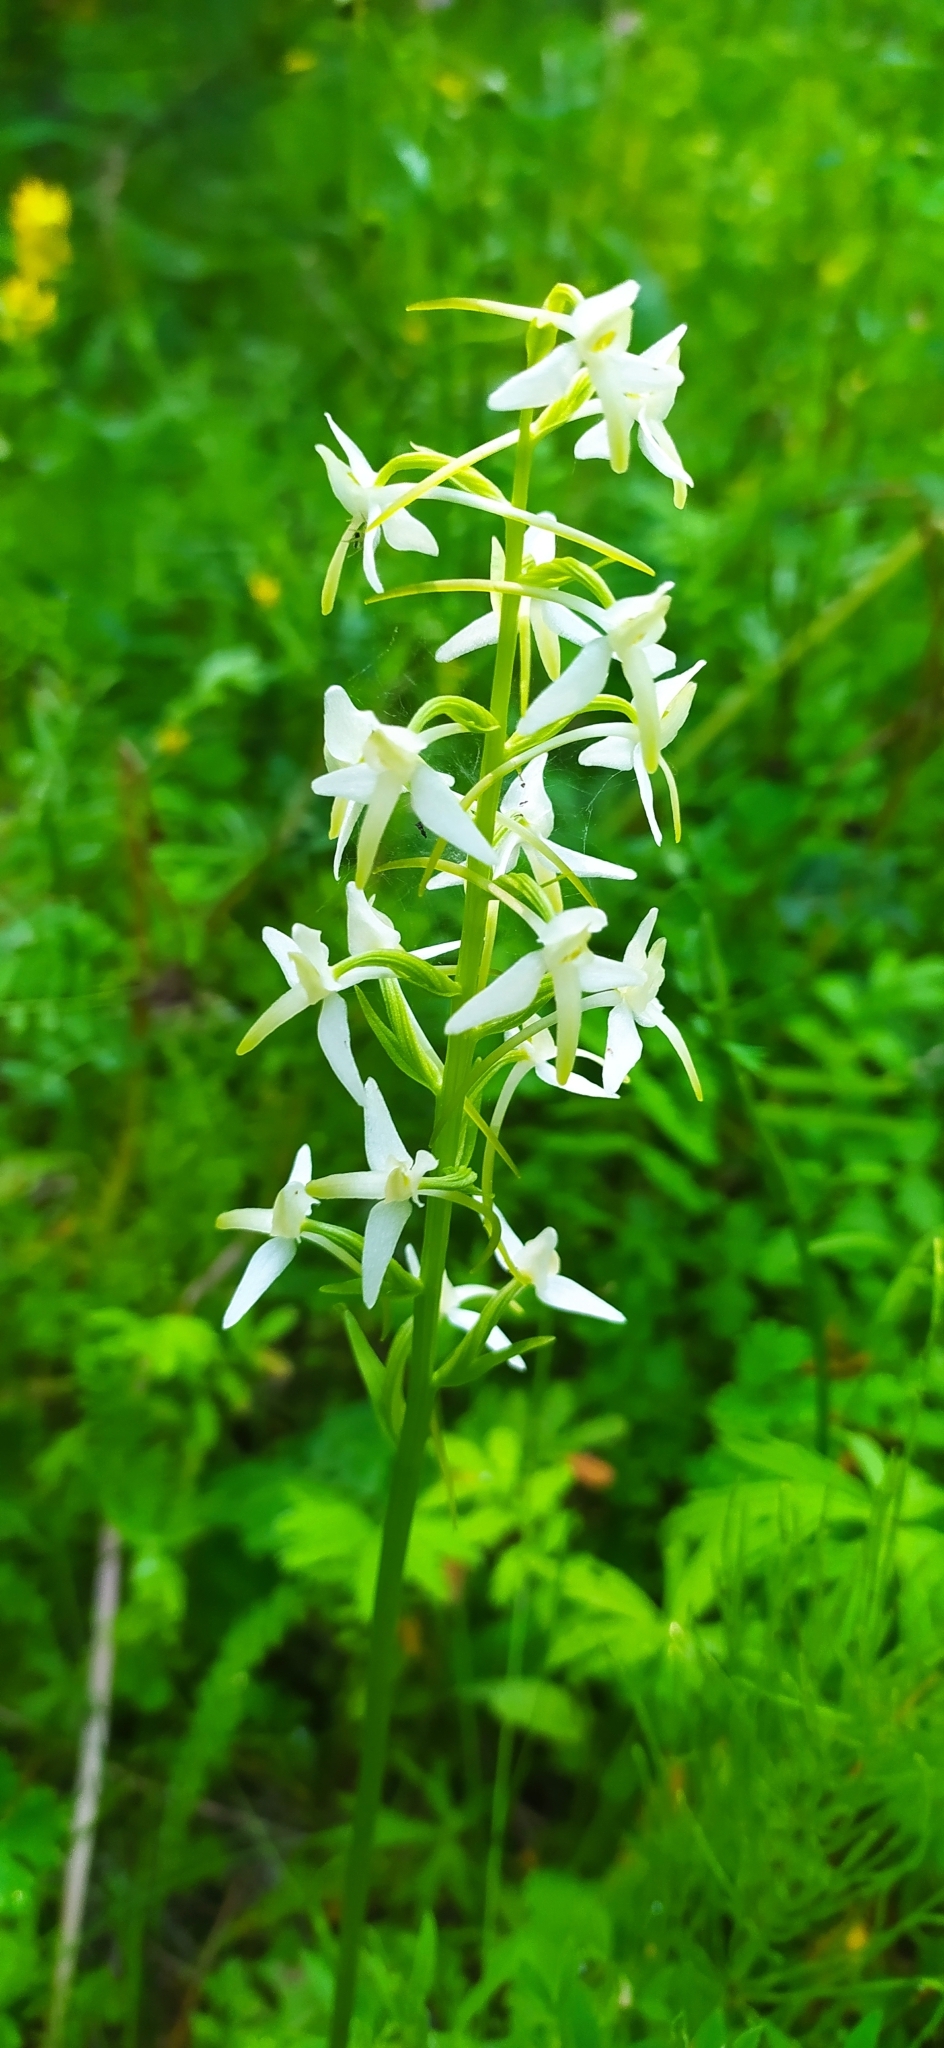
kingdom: Plantae
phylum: Tracheophyta
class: Liliopsida
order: Asparagales
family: Orchidaceae
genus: Platanthera
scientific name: Platanthera bifolia
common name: Lesser butterfly-orchid
